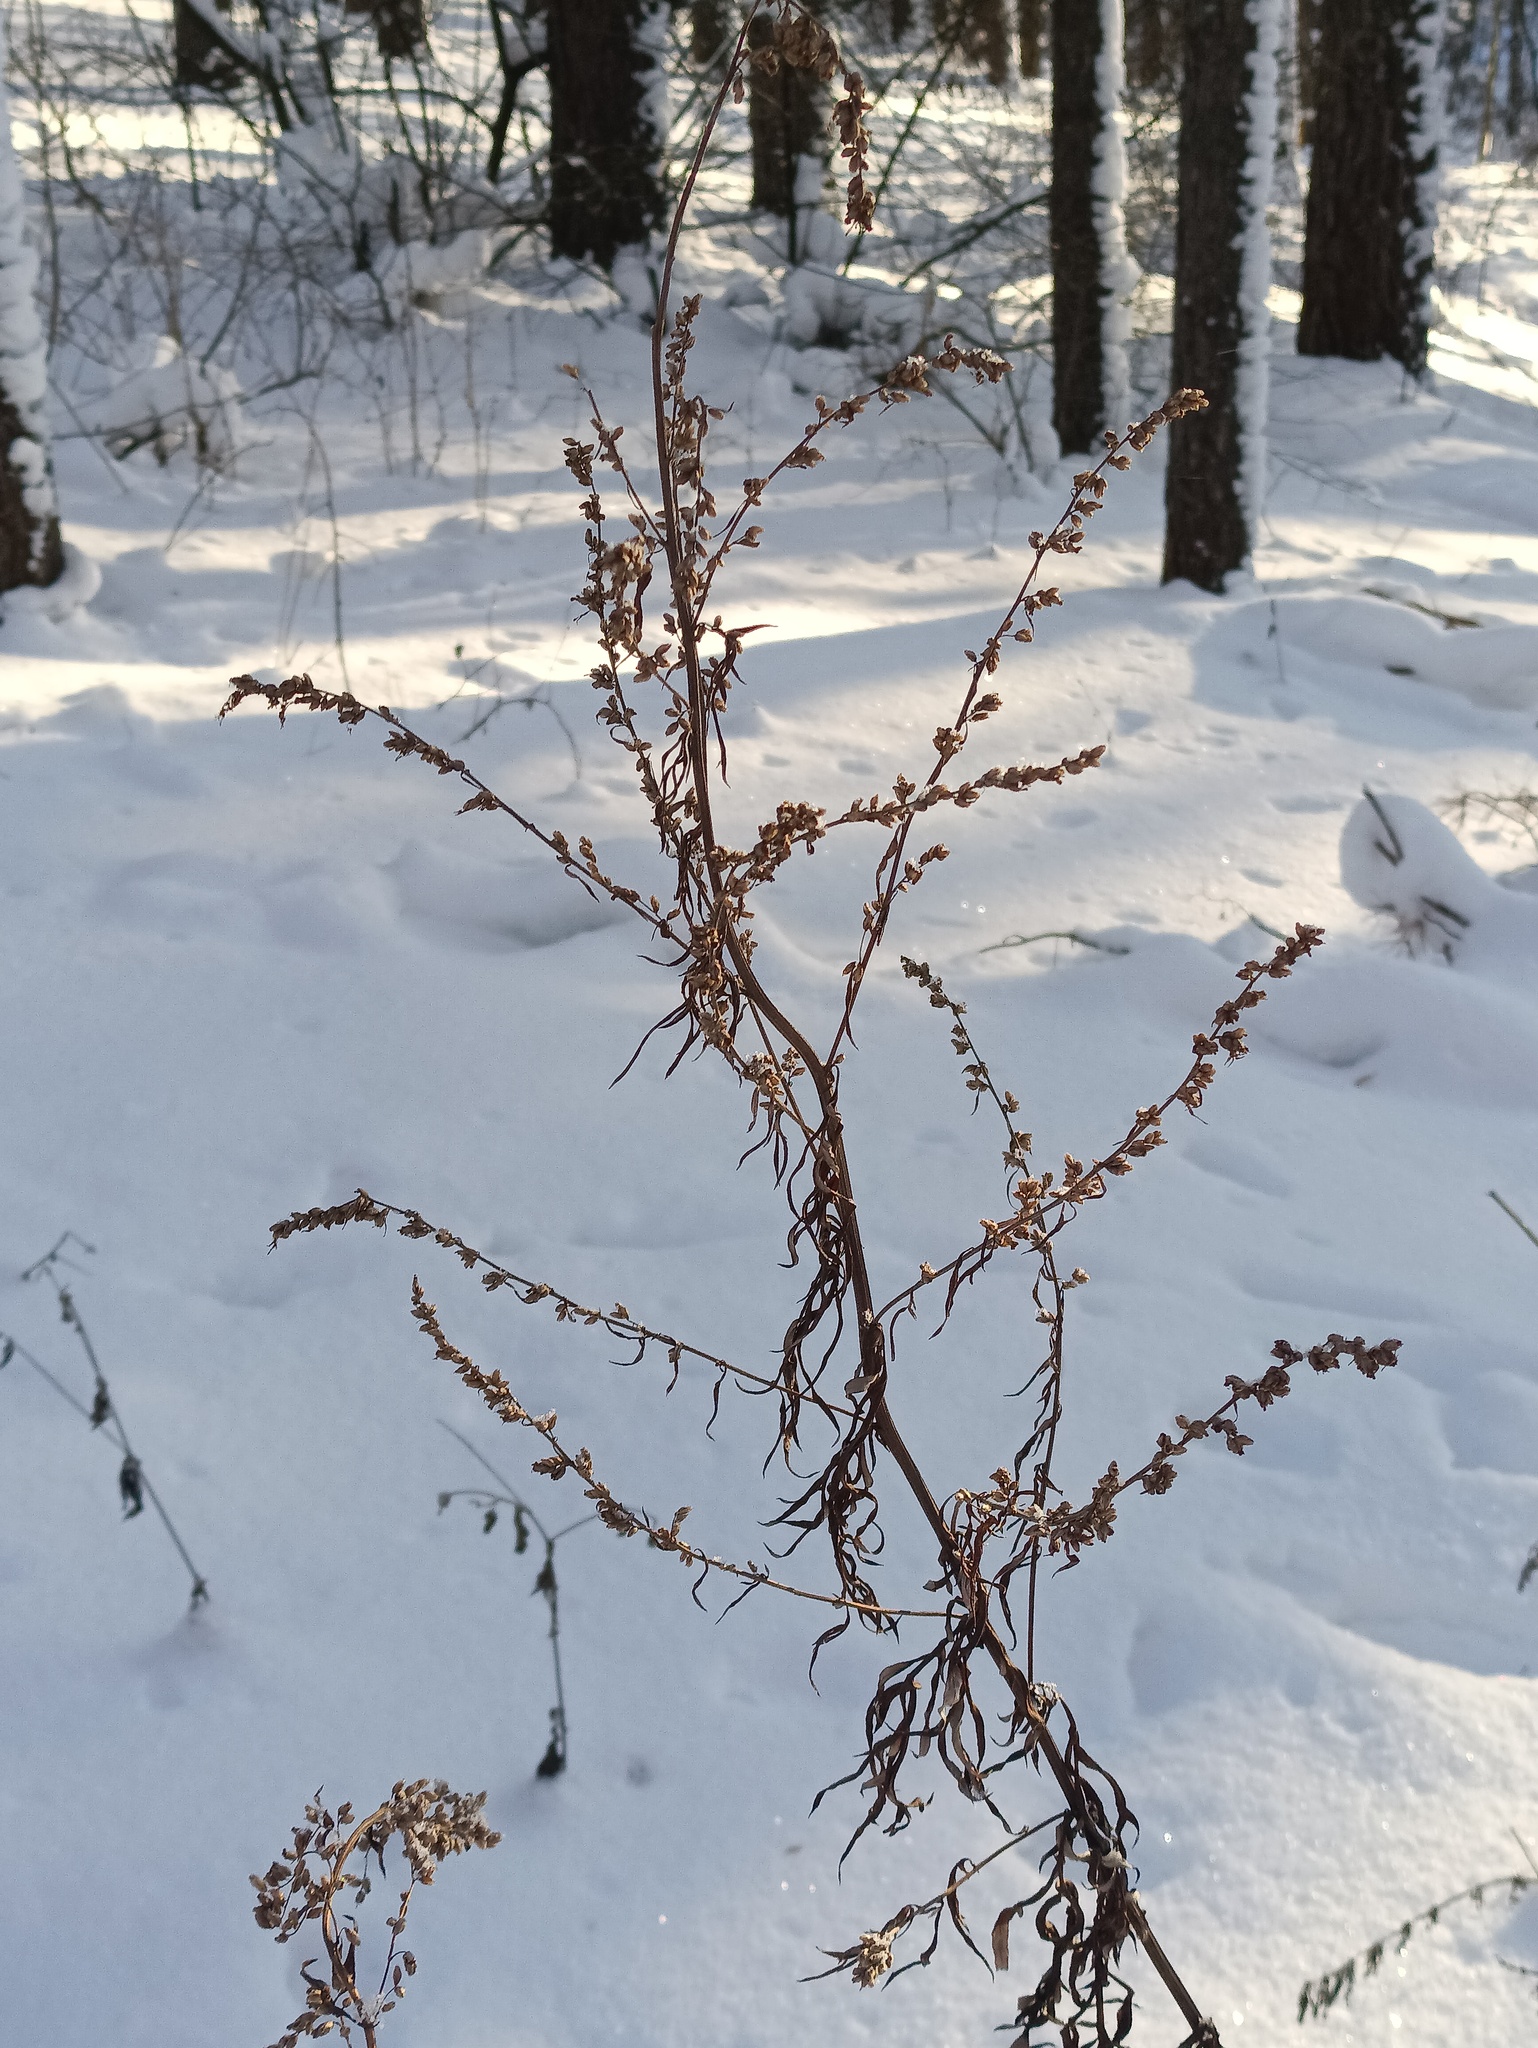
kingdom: Plantae
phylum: Tracheophyta
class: Magnoliopsida
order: Asterales
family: Asteraceae
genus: Artemisia
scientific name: Artemisia vulgaris
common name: Mugwort
